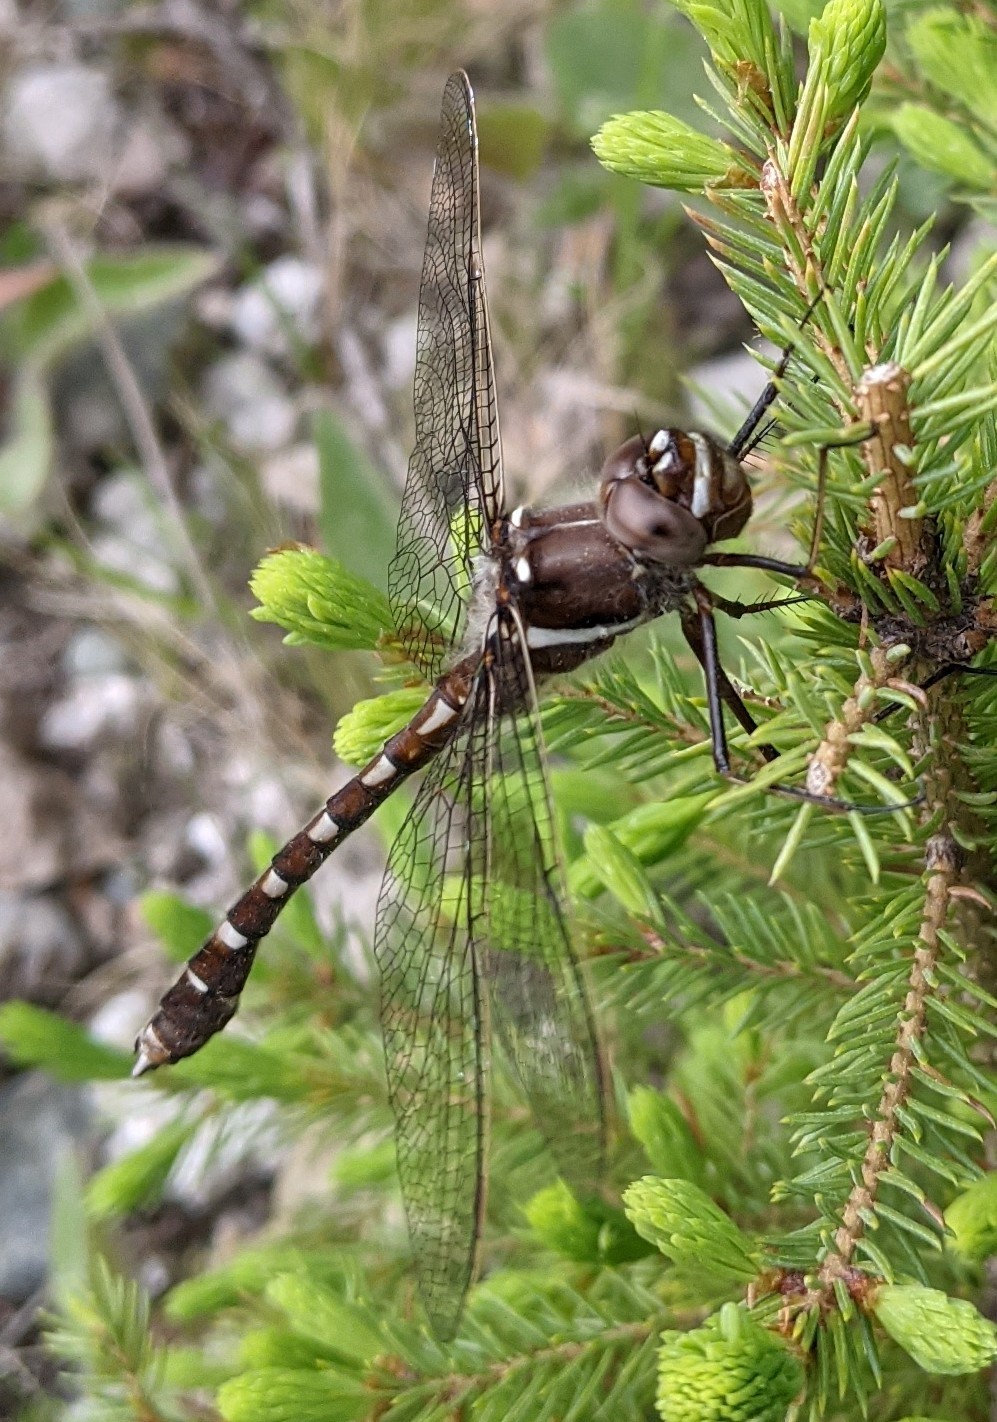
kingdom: Animalia
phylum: Arthropoda
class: Insecta
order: Odonata
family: Macromiidae
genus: Didymops
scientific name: Didymops transversa
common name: Stream cruiser
